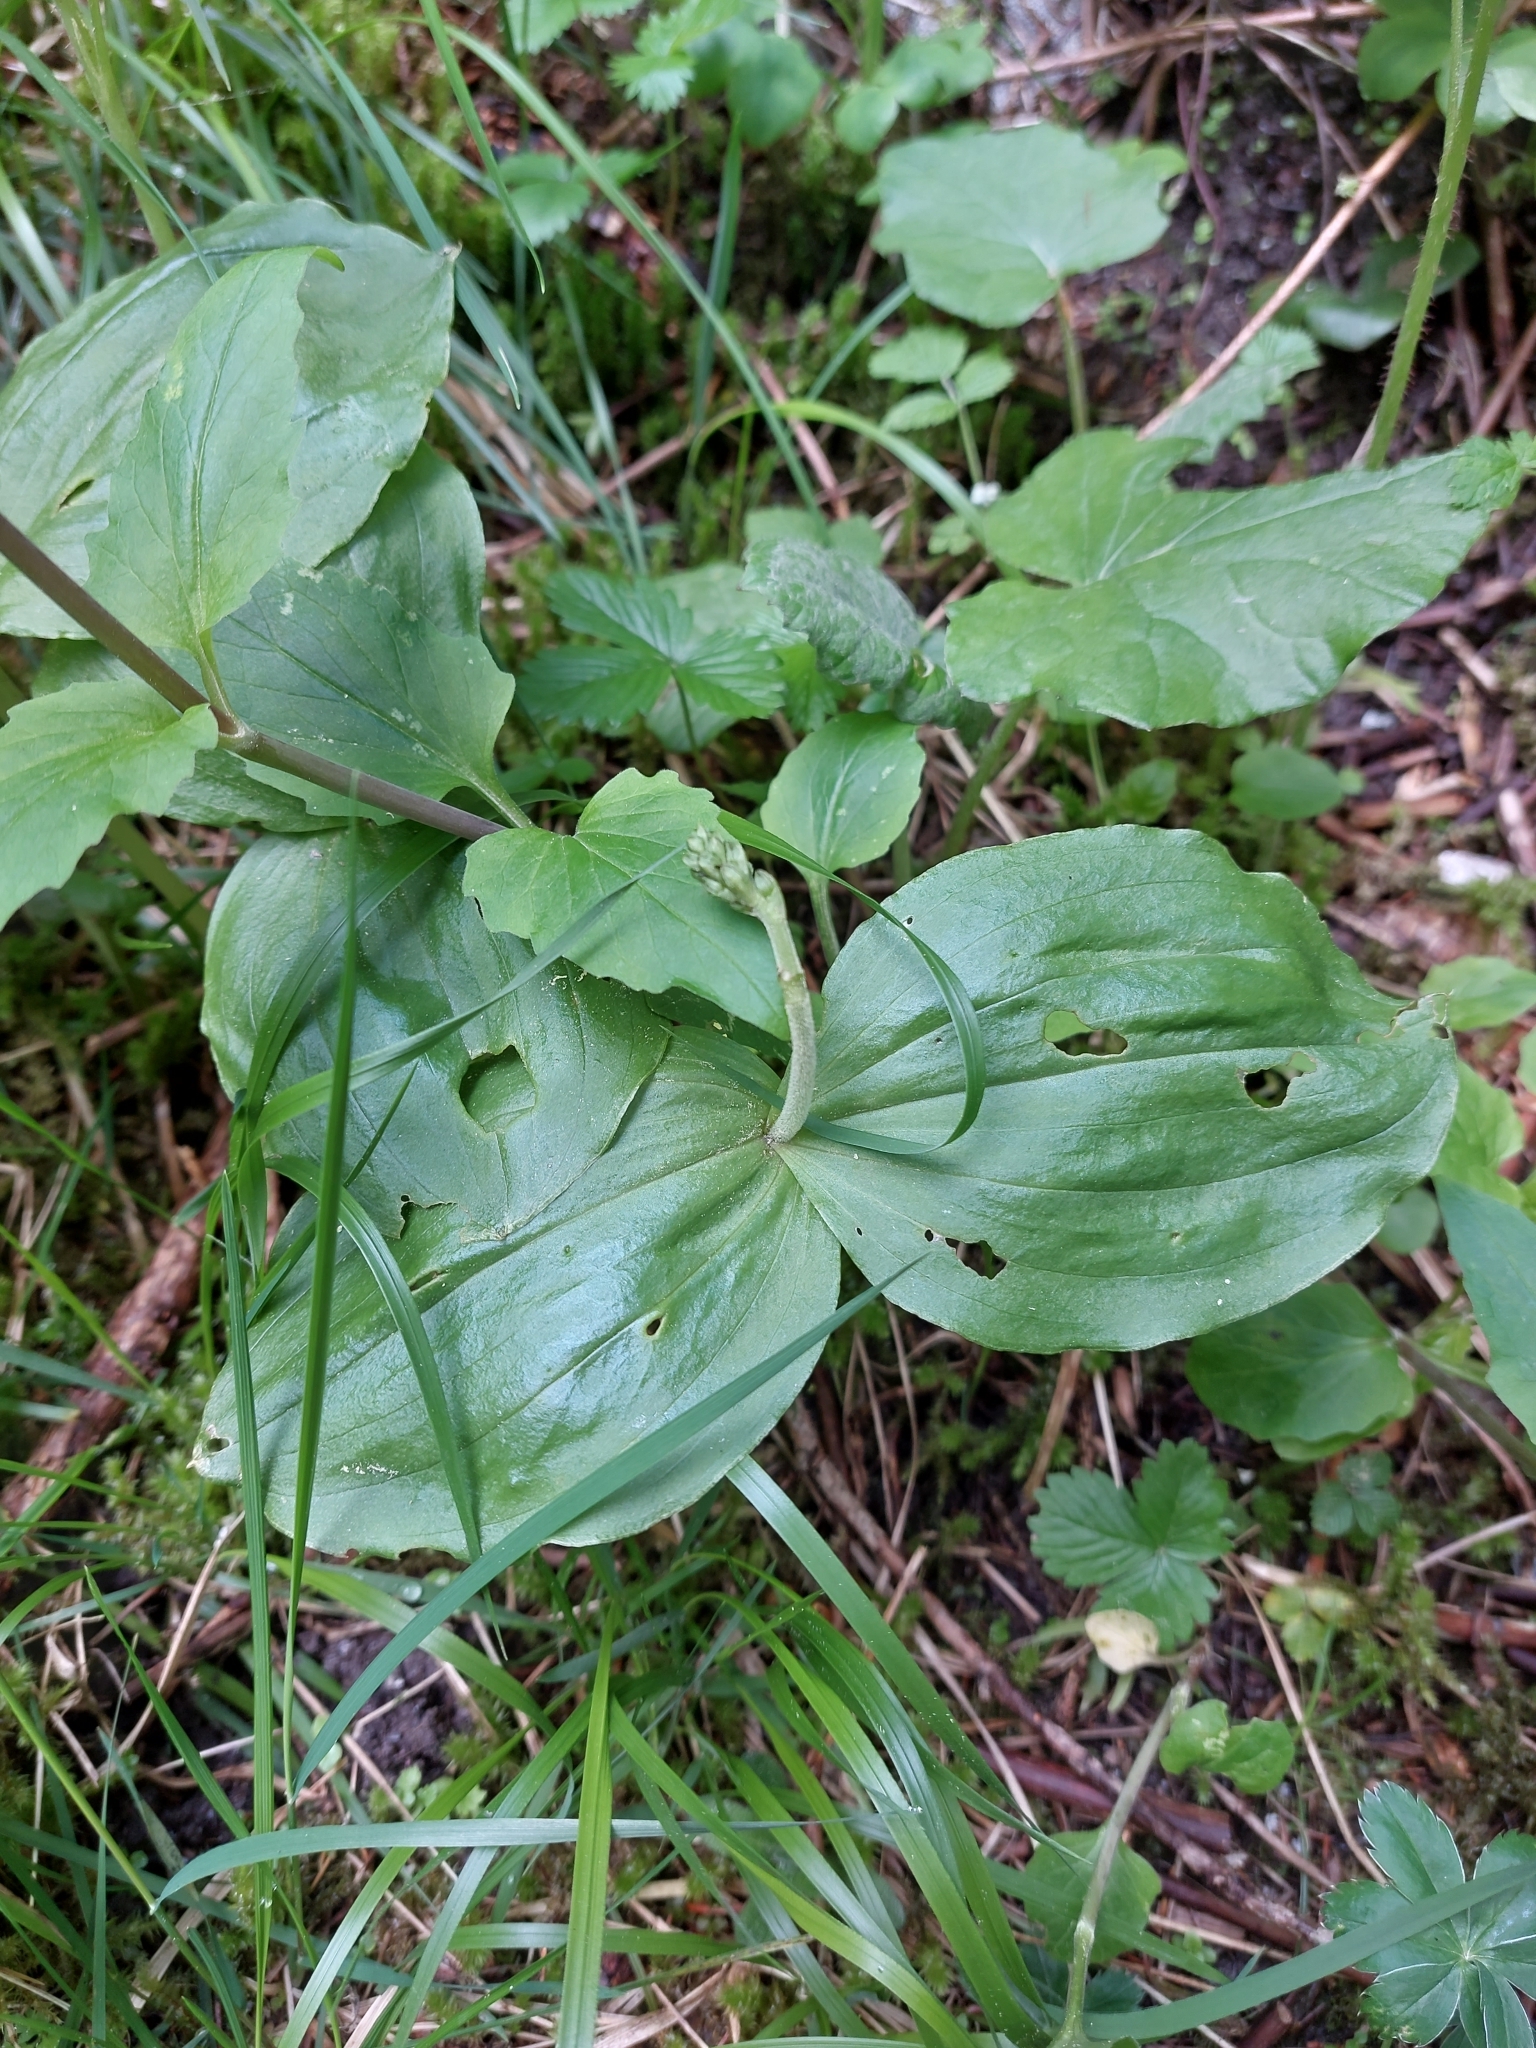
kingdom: Plantae
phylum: Tracheophyta
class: Liliopsida
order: Asparagales
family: Orchidaceae
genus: Neottia
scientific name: Neottia ovata
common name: Common twayblade
